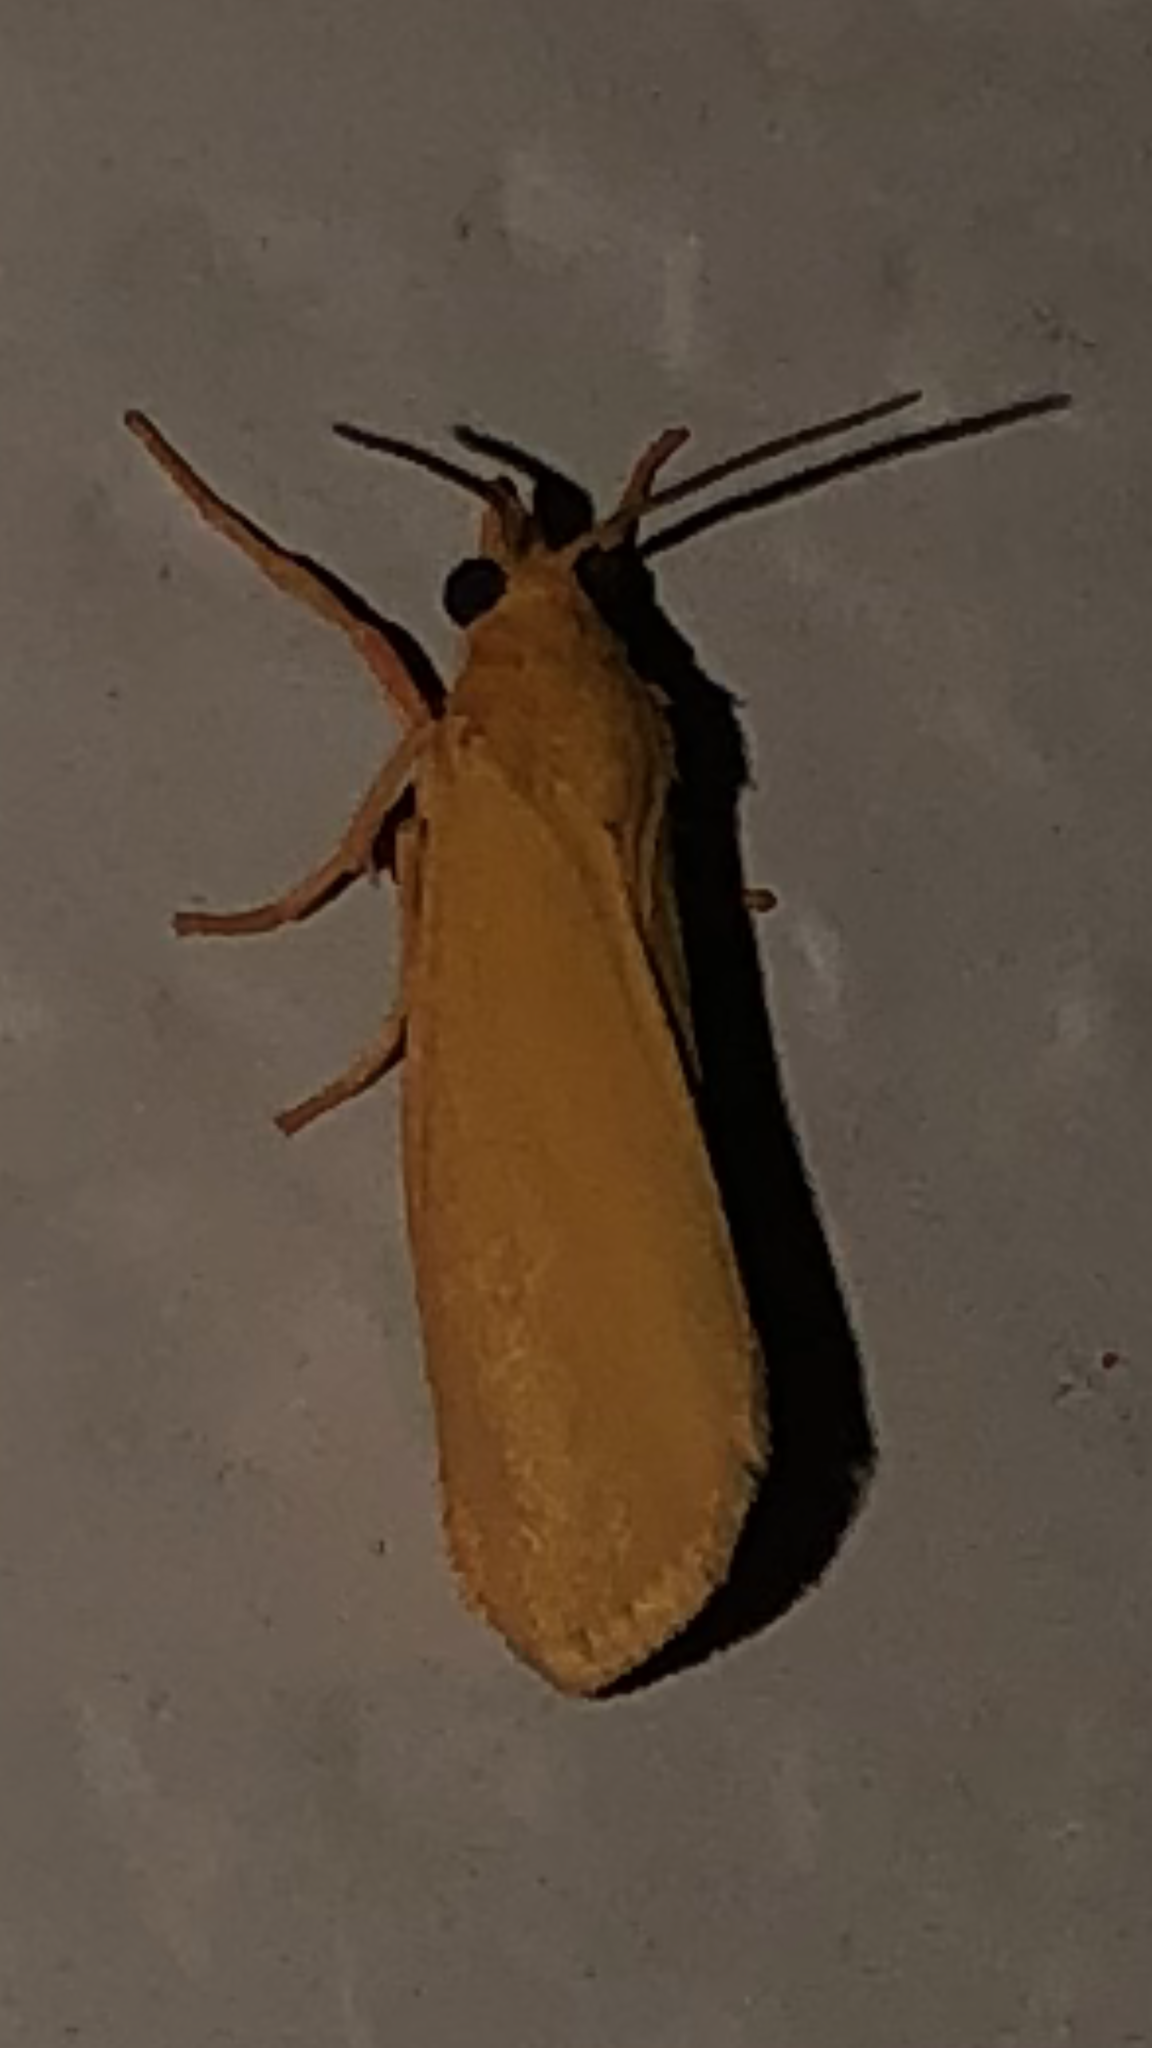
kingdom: Animalia
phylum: Arthropoda
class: Insecta
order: Lepidoptera
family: Erebidae
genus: Virbia
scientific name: Virbia aurantiaca
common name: Orange virbia moth
